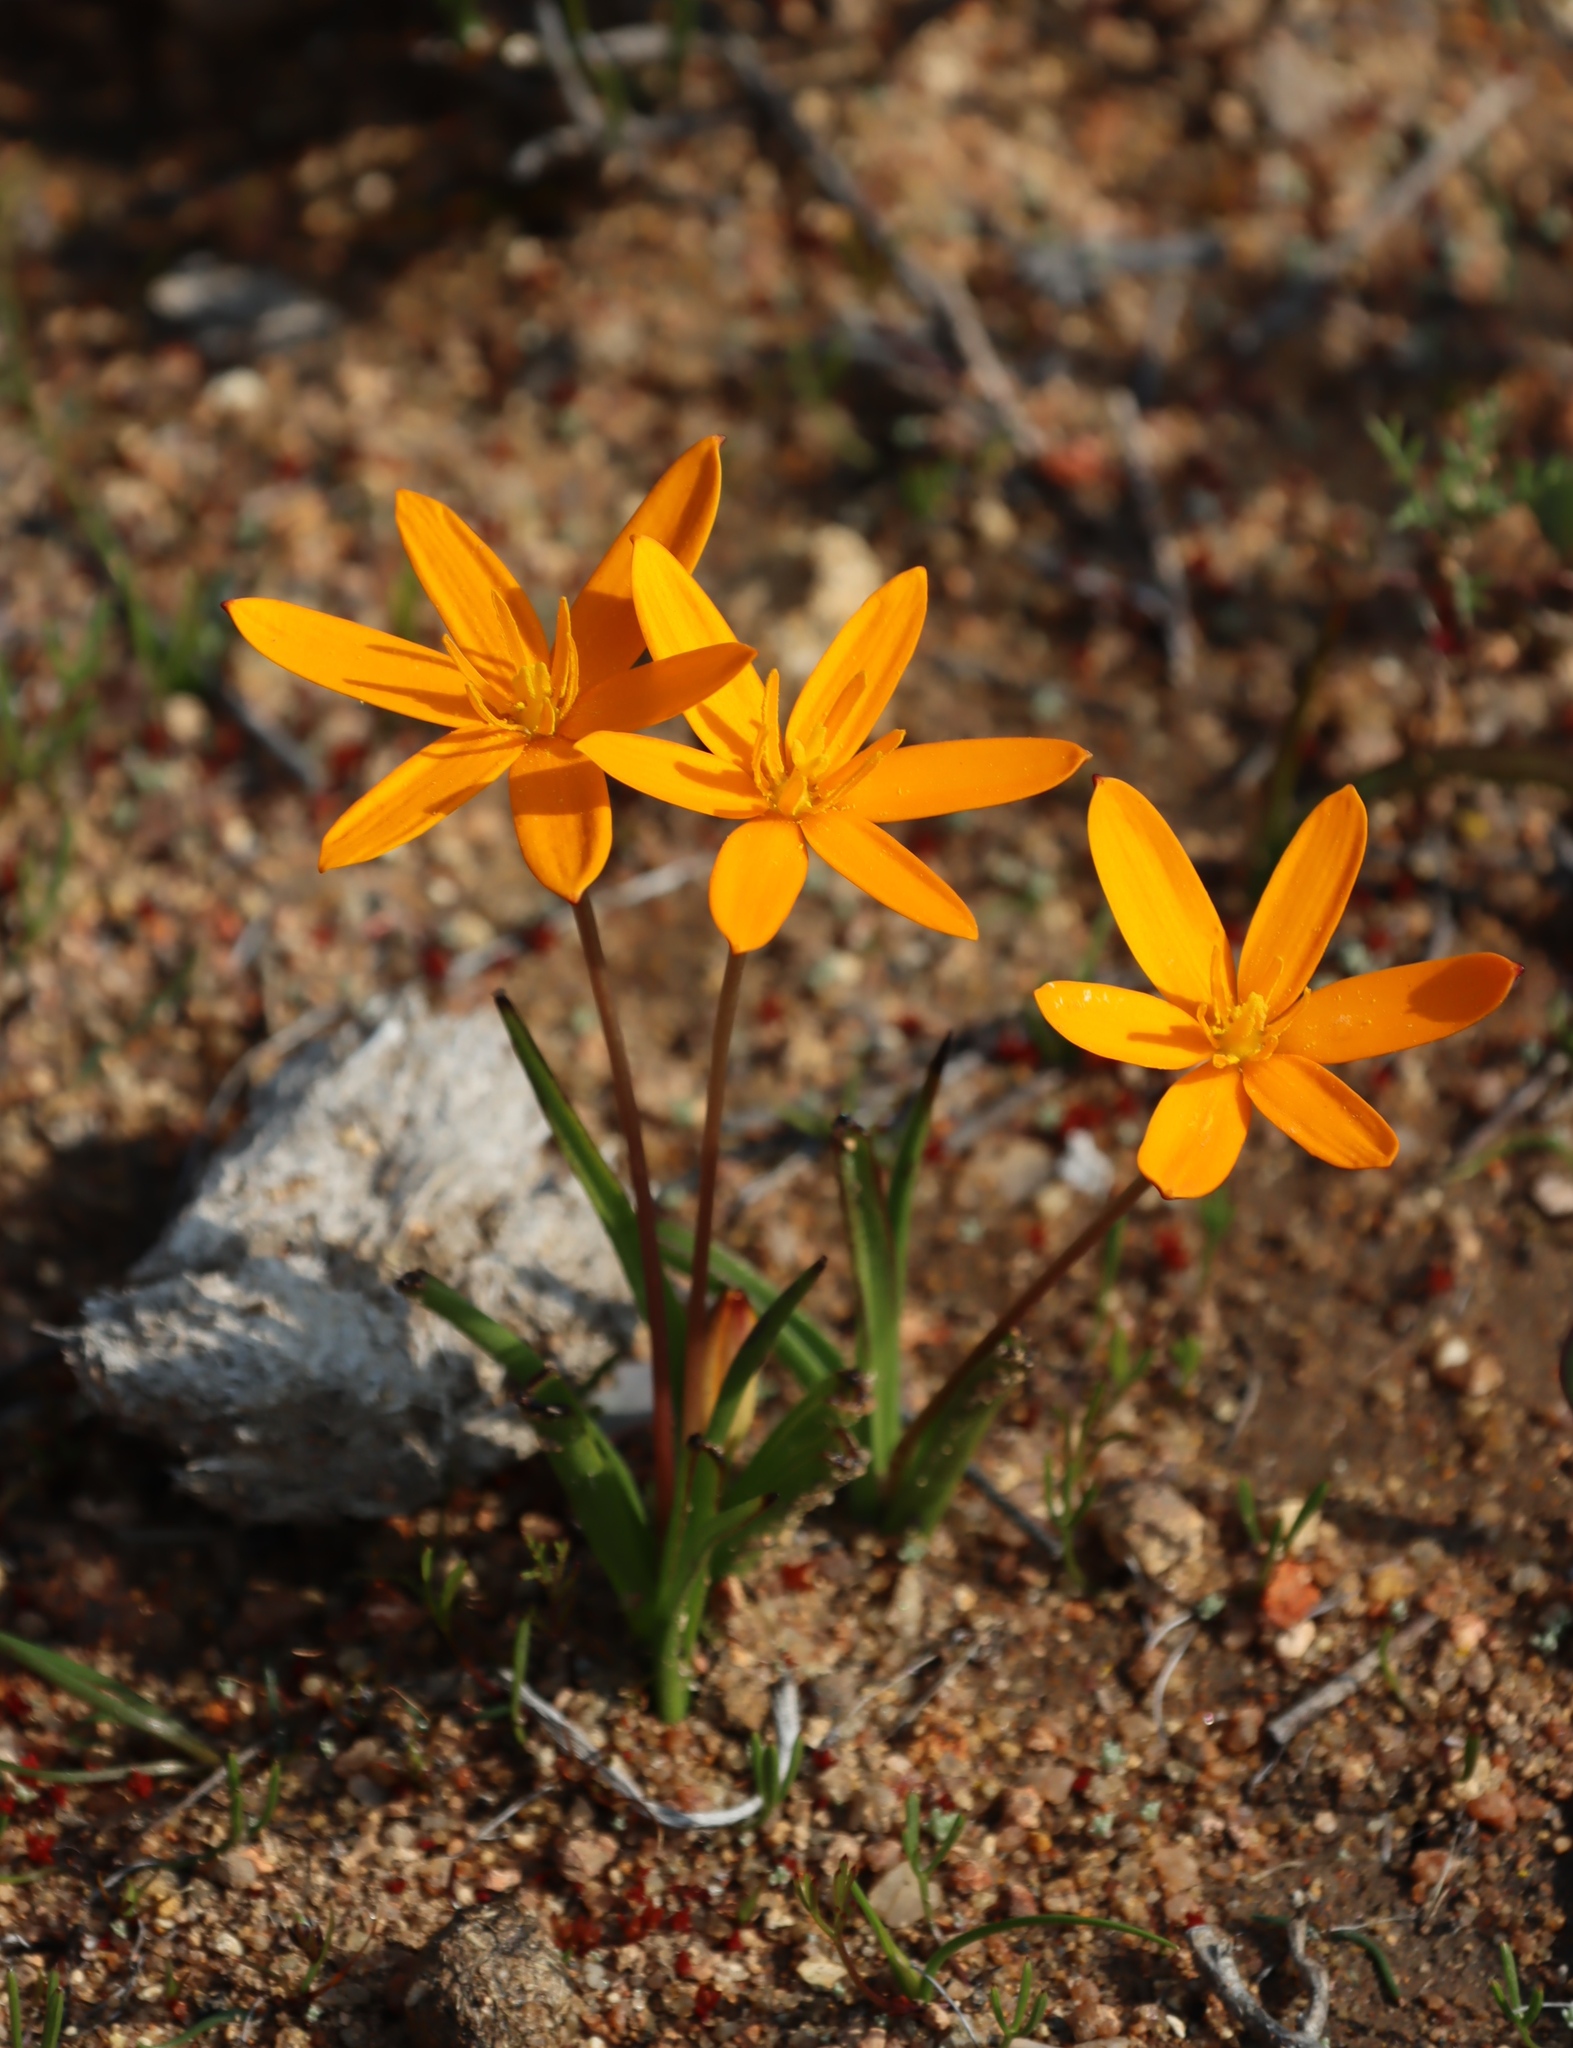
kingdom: Plantae
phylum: Tracheophyta
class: Liliopsida
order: Asparagales
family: Hypoxidaceae
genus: Pauridia
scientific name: Pauridia gracilipes
